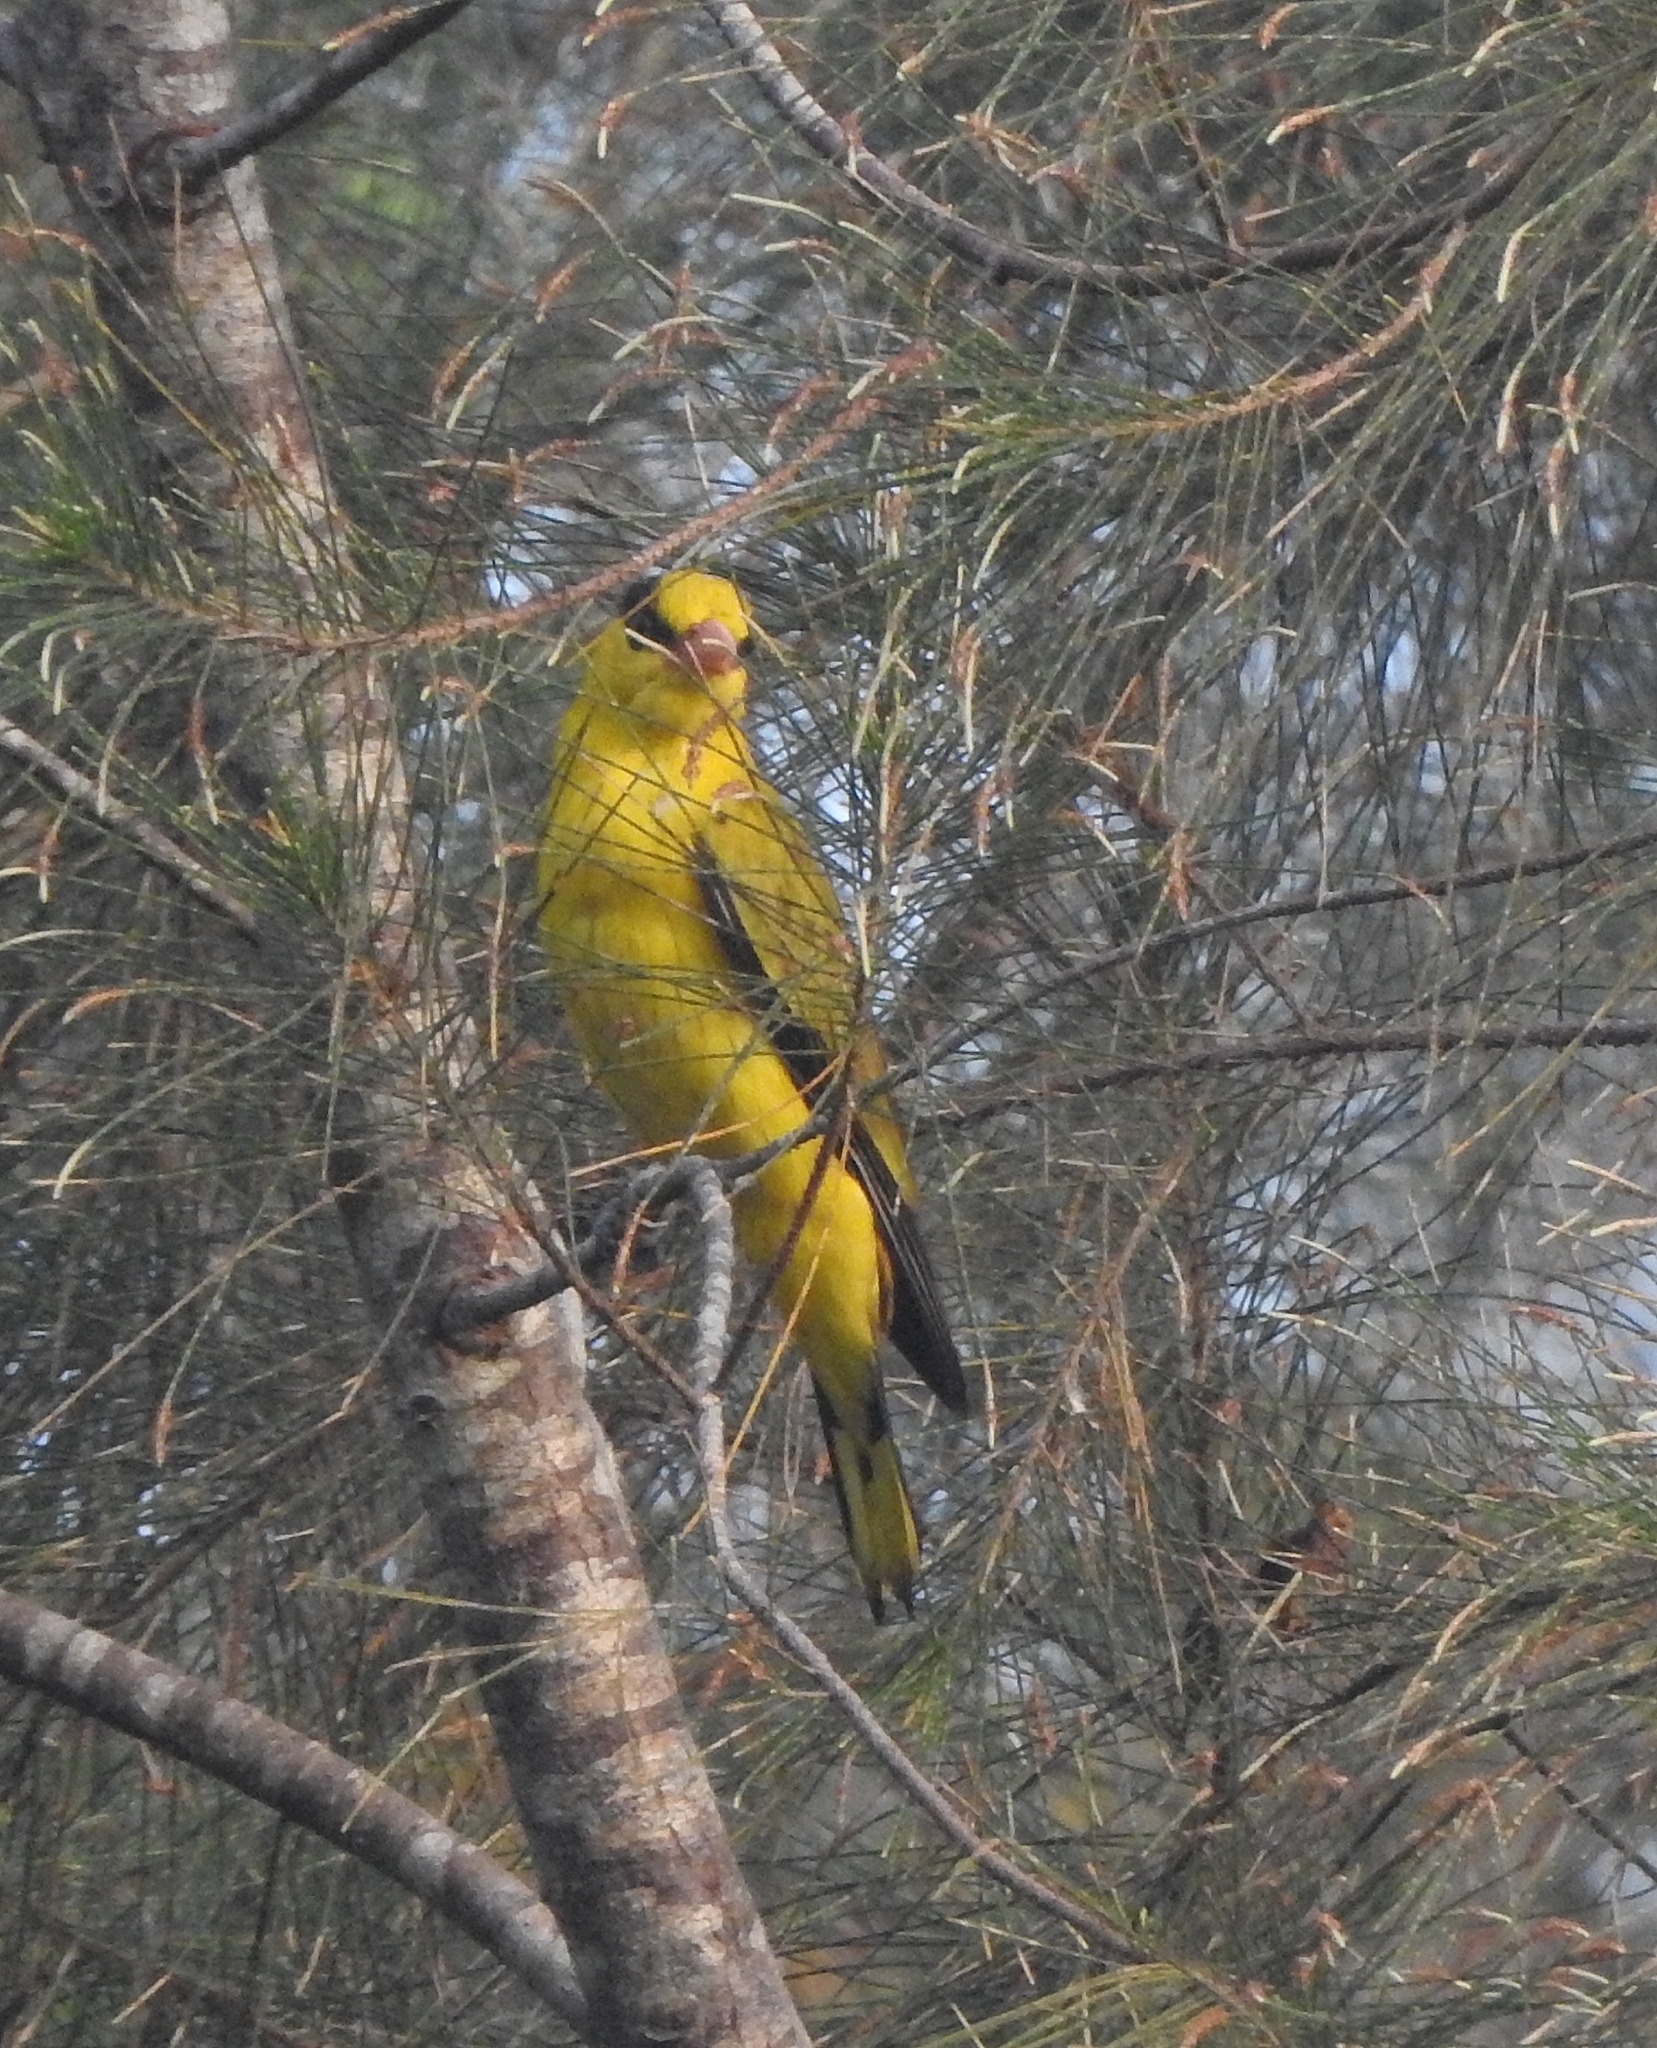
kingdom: Animalia
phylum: Chordata
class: Aves
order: Passeriformes
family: Oriolidae
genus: Oriolus
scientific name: Oriolus chinensis
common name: Black-naped oriole
